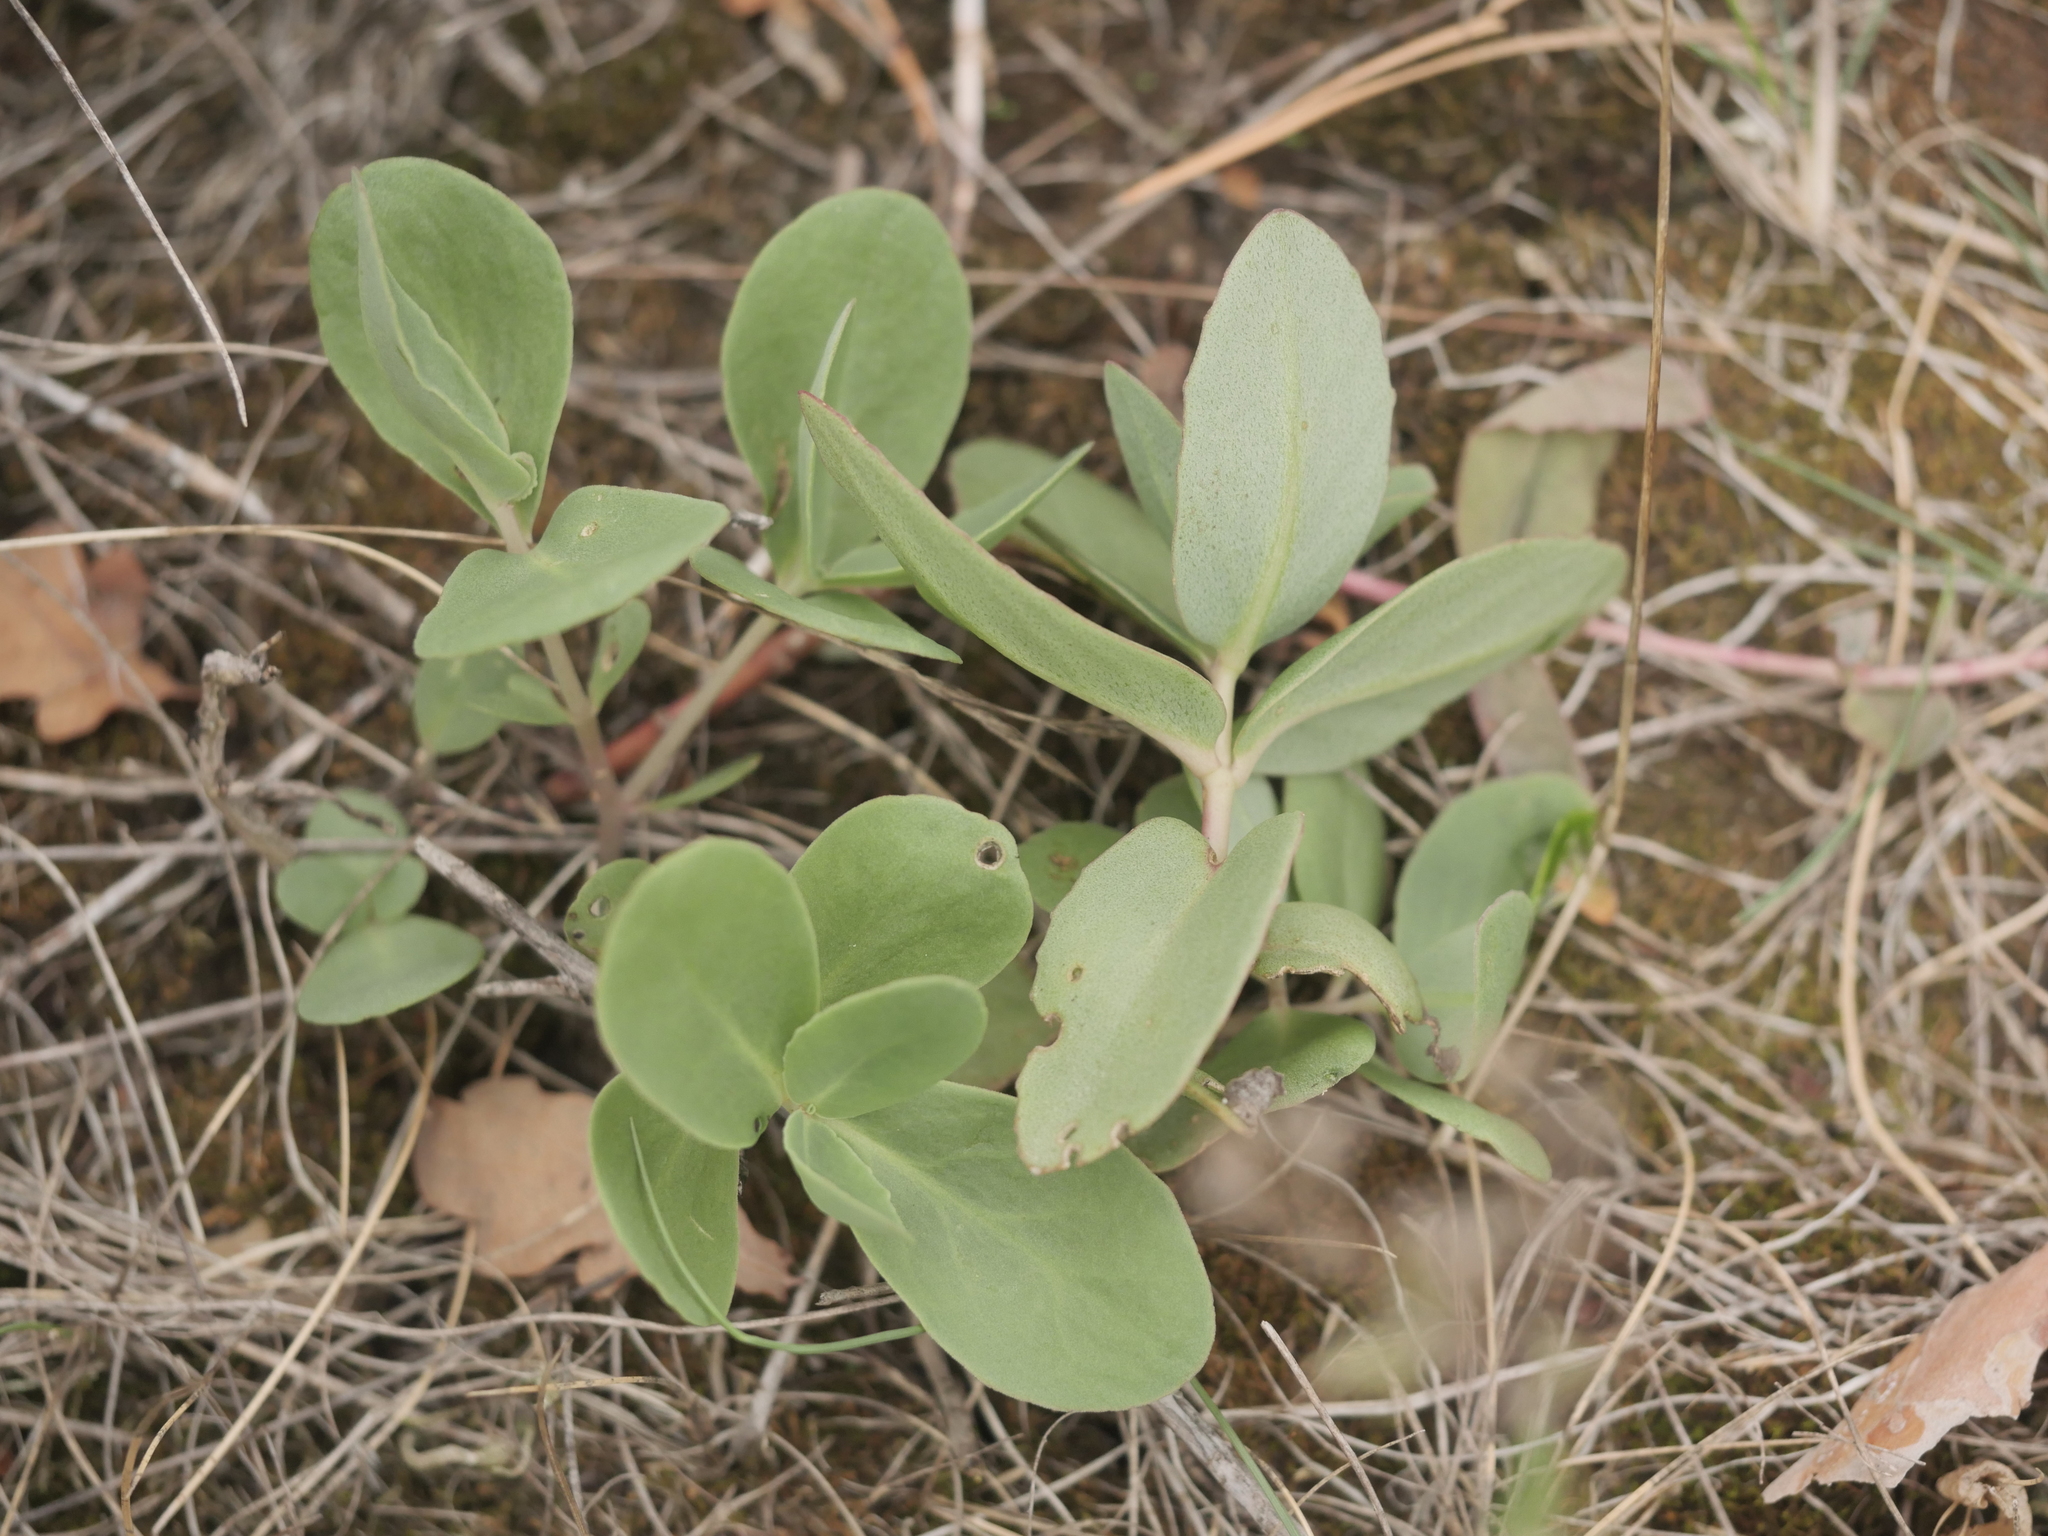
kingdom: Plantae
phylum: Tracheophyta
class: Magnoliopsida
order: Saxifragales
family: Crassulaceae
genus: Hylotelephium
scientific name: Hylotelephium maximum
